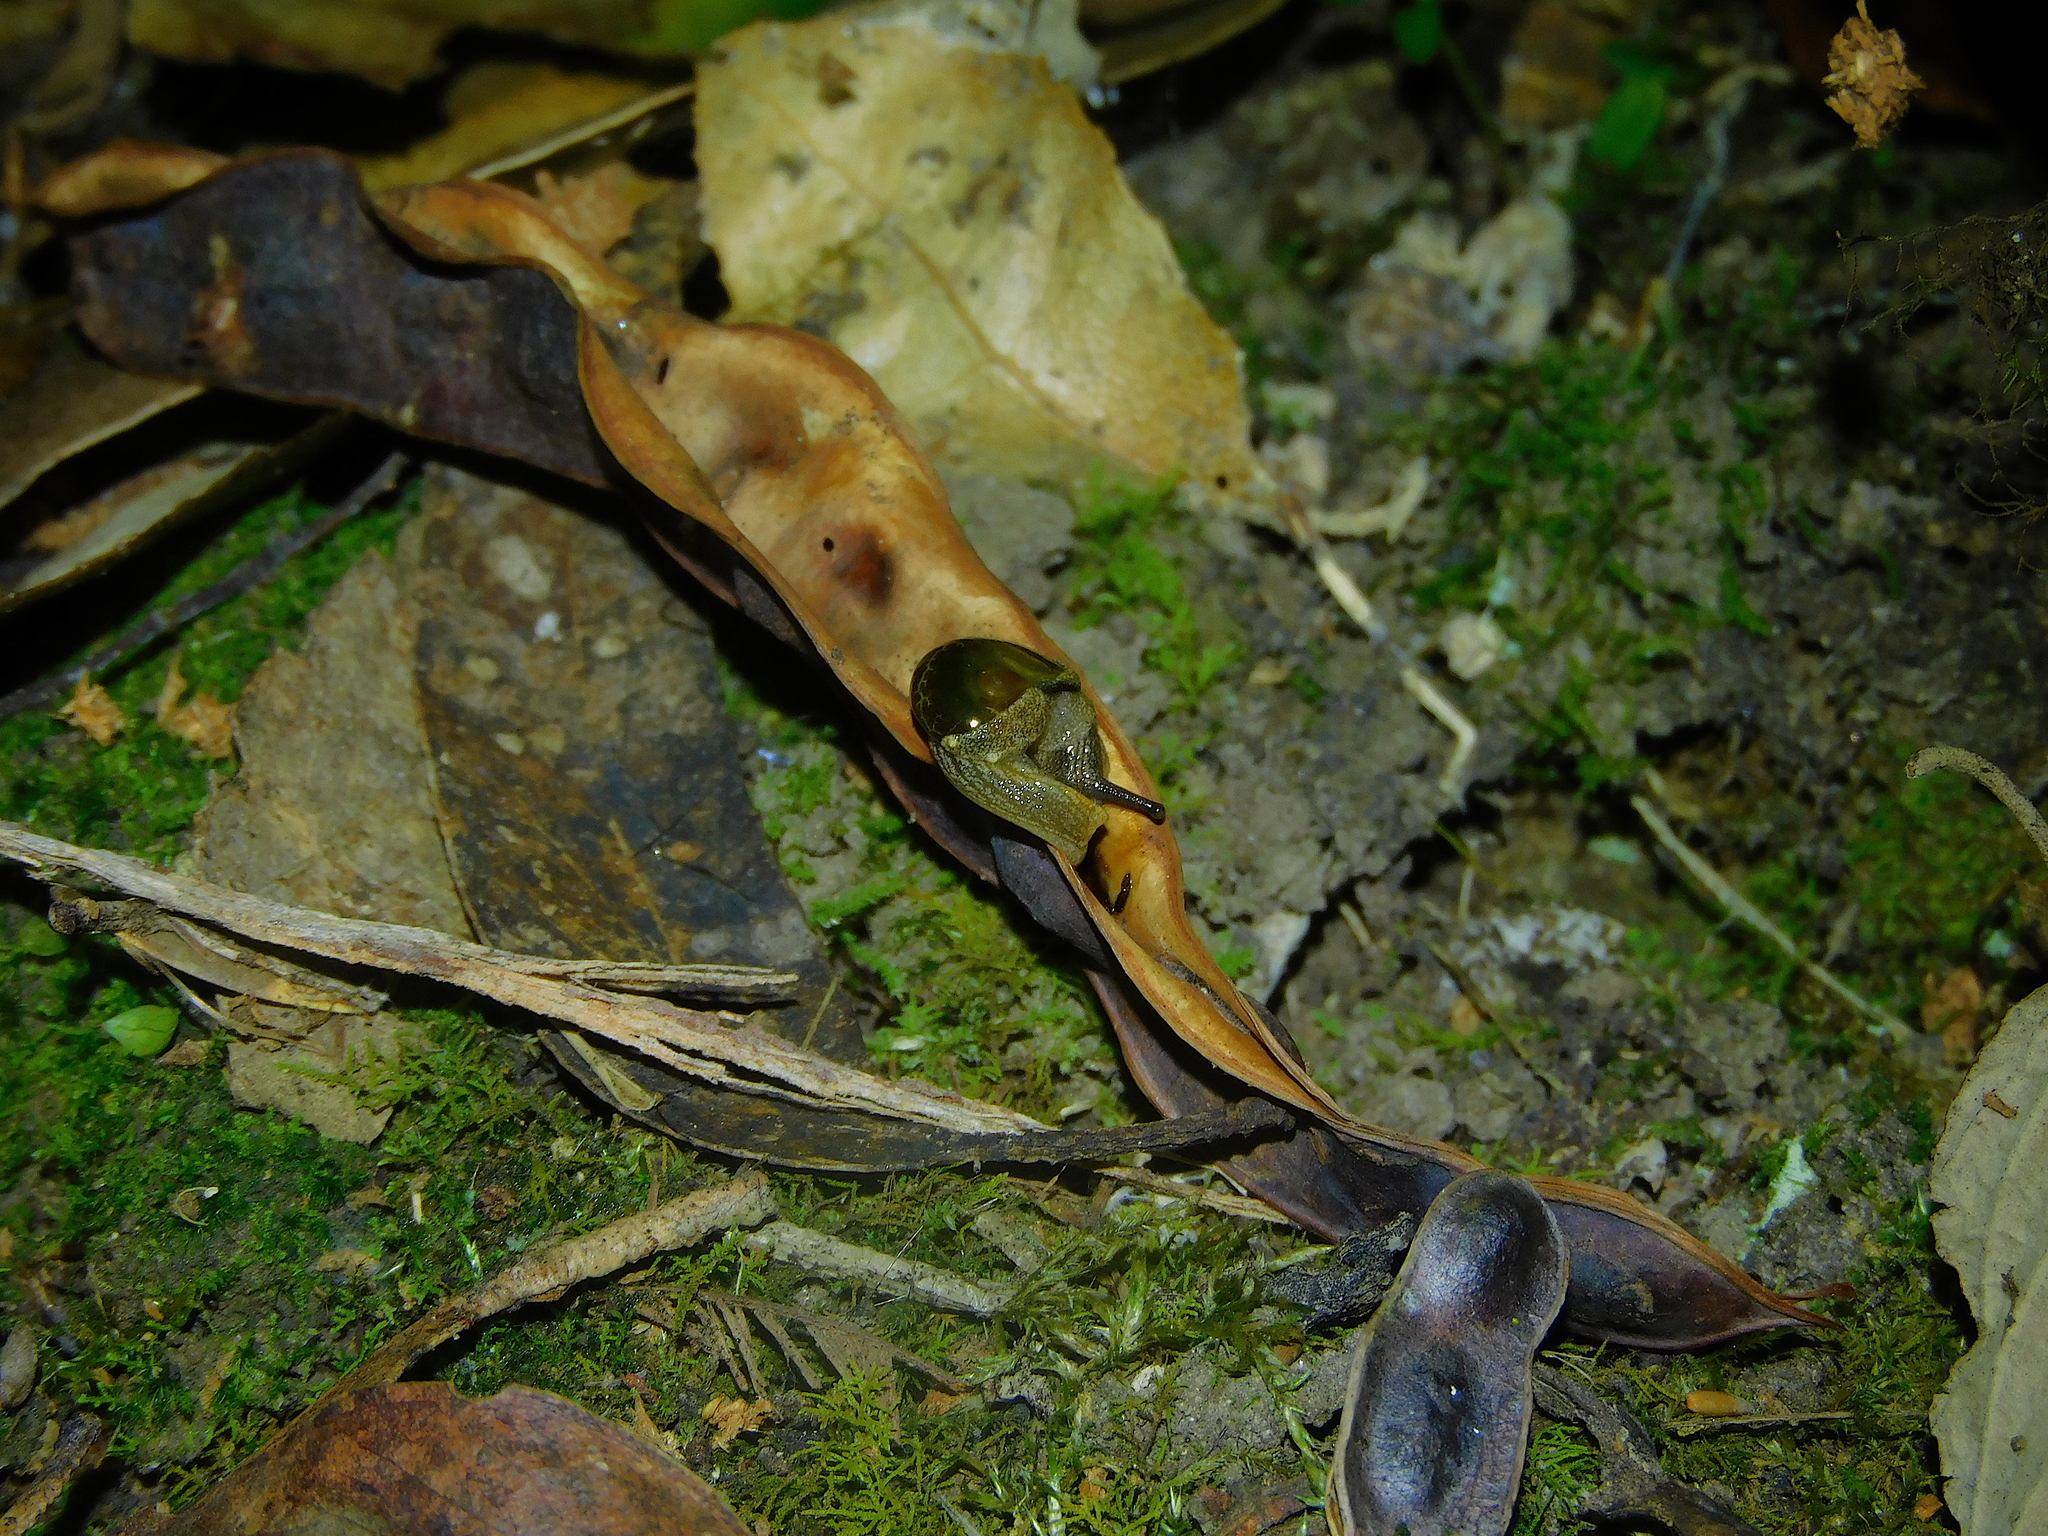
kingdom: Animalia
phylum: Mollusca
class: Gastropoda
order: Stylommatophora
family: Helicarionidae
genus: Helicarion
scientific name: Helicarion cuvieri
